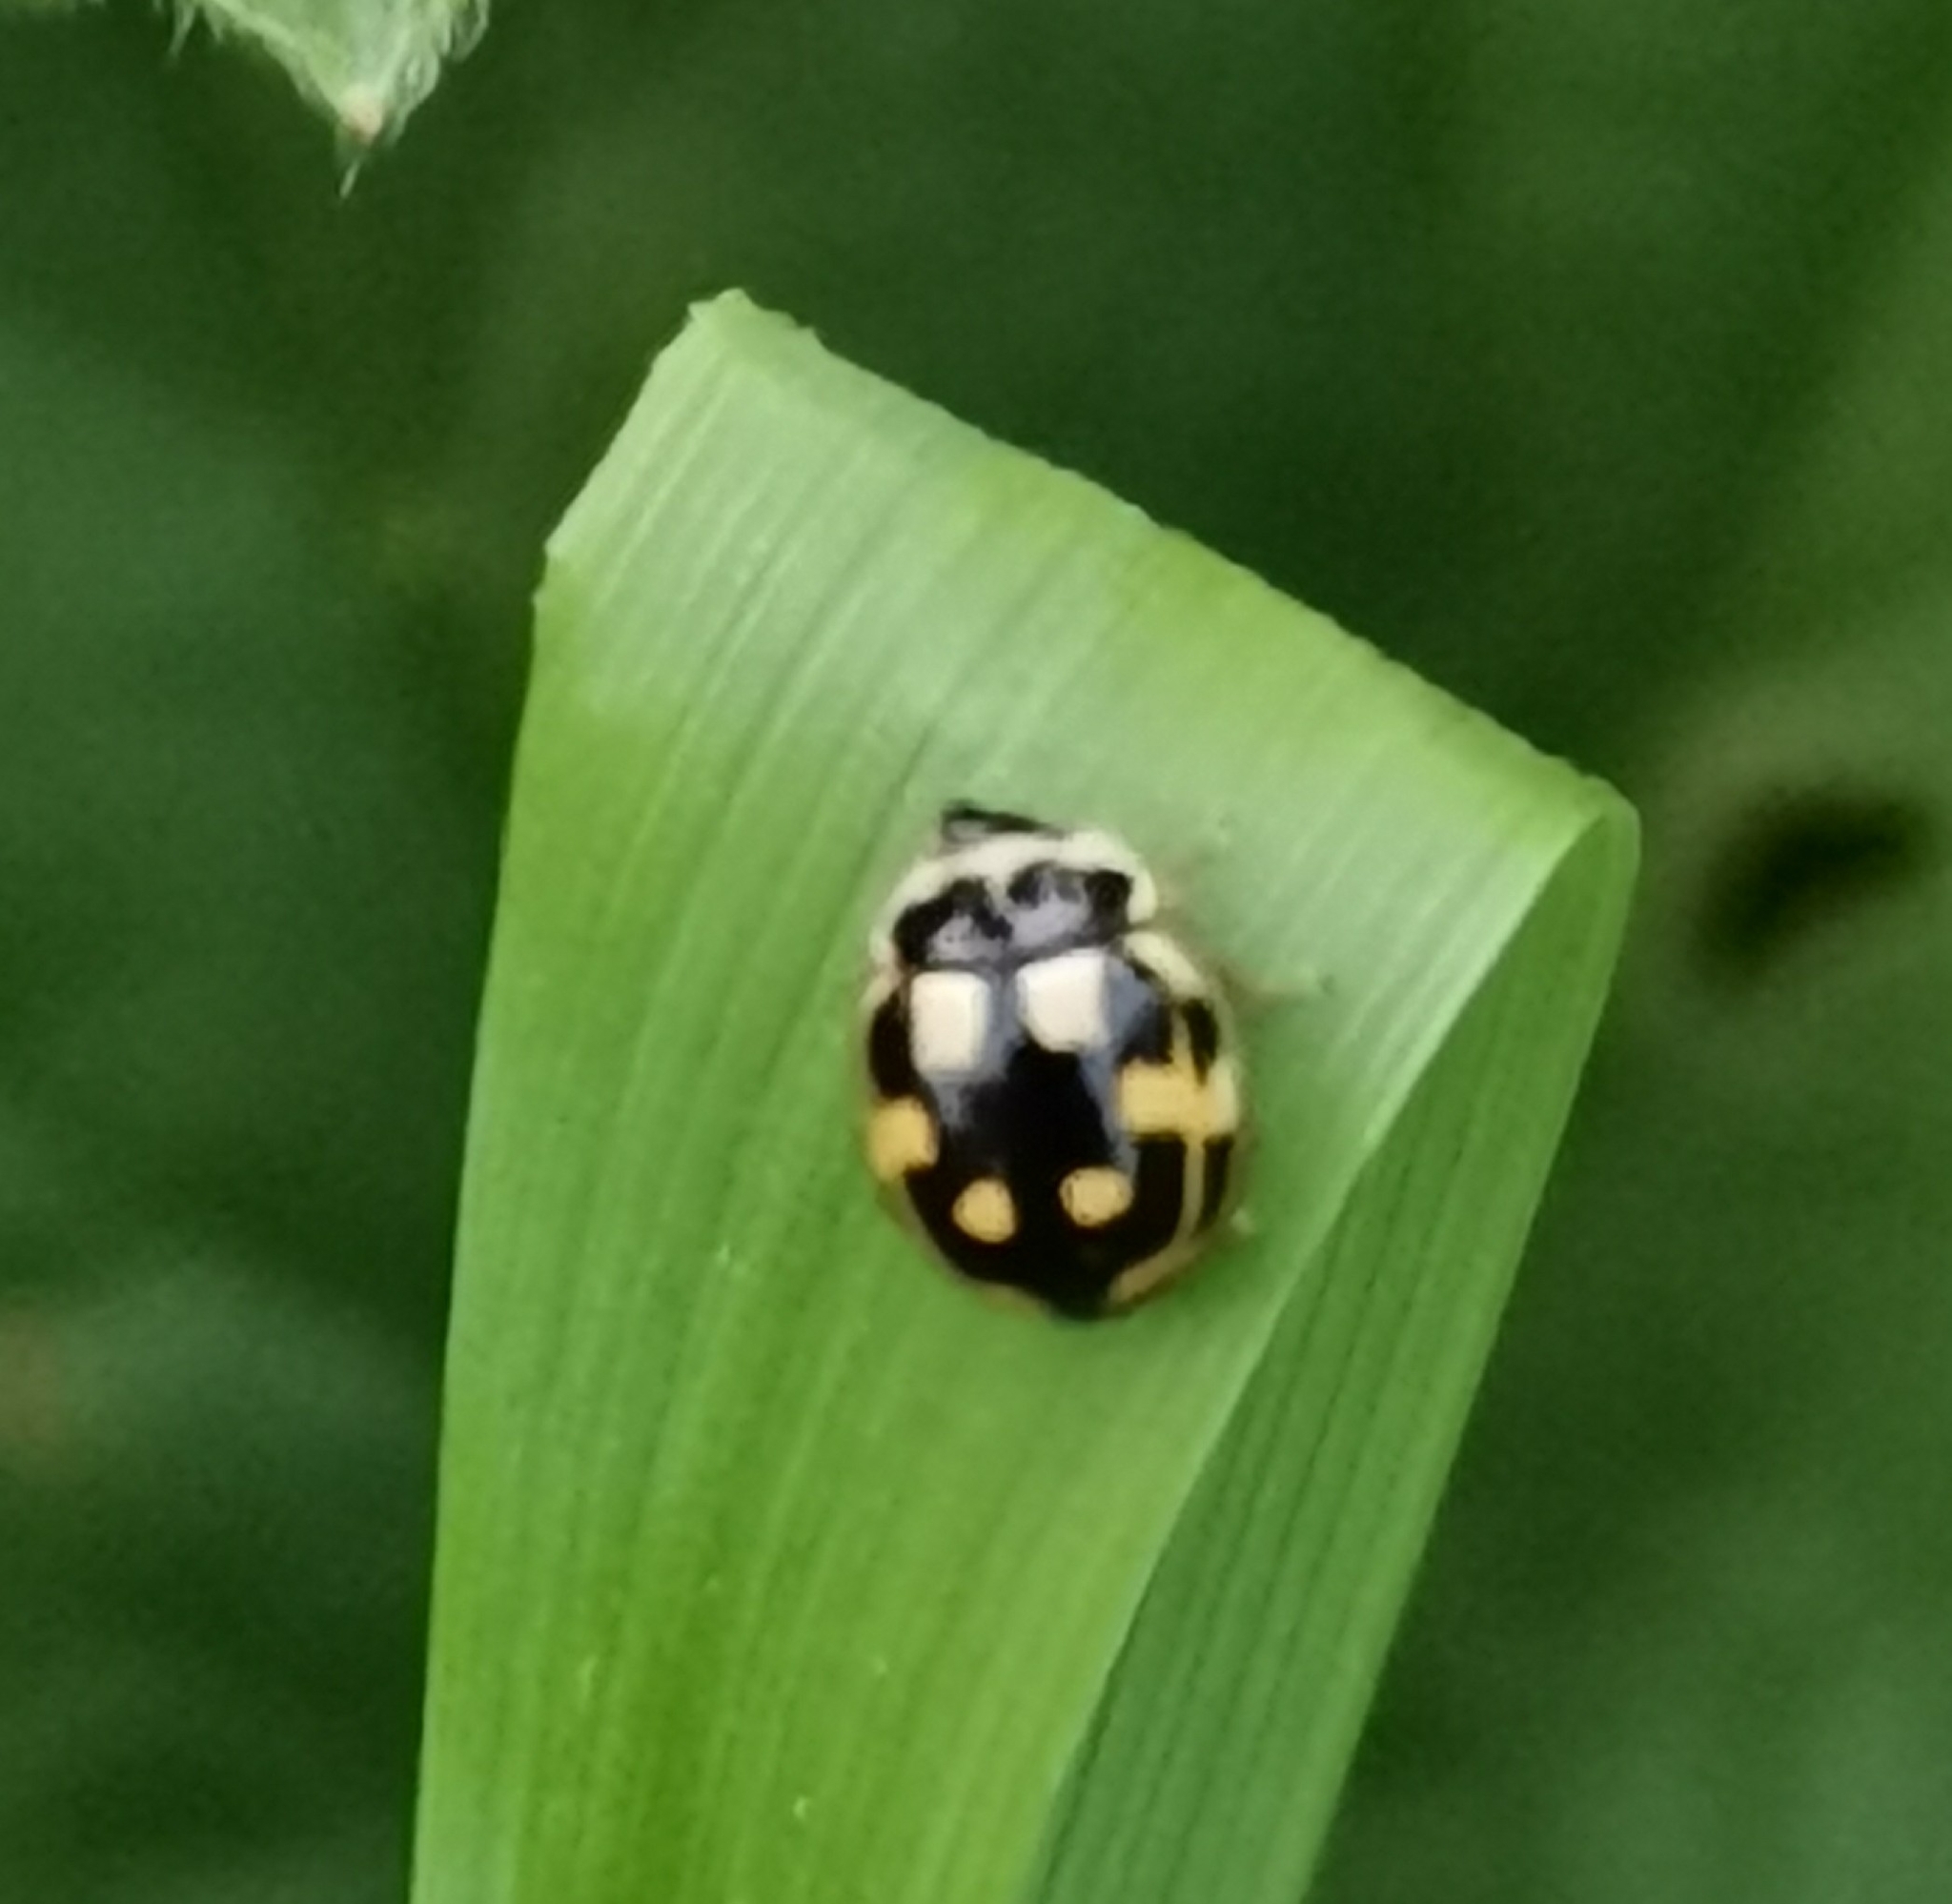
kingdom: Animalia
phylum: Arthropoda
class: Insecta
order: Coleoptera
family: Coccinellidae
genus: Propylaea
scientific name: Propylaea quatuordecimpunctata
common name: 14-spotted ladybird beetle
